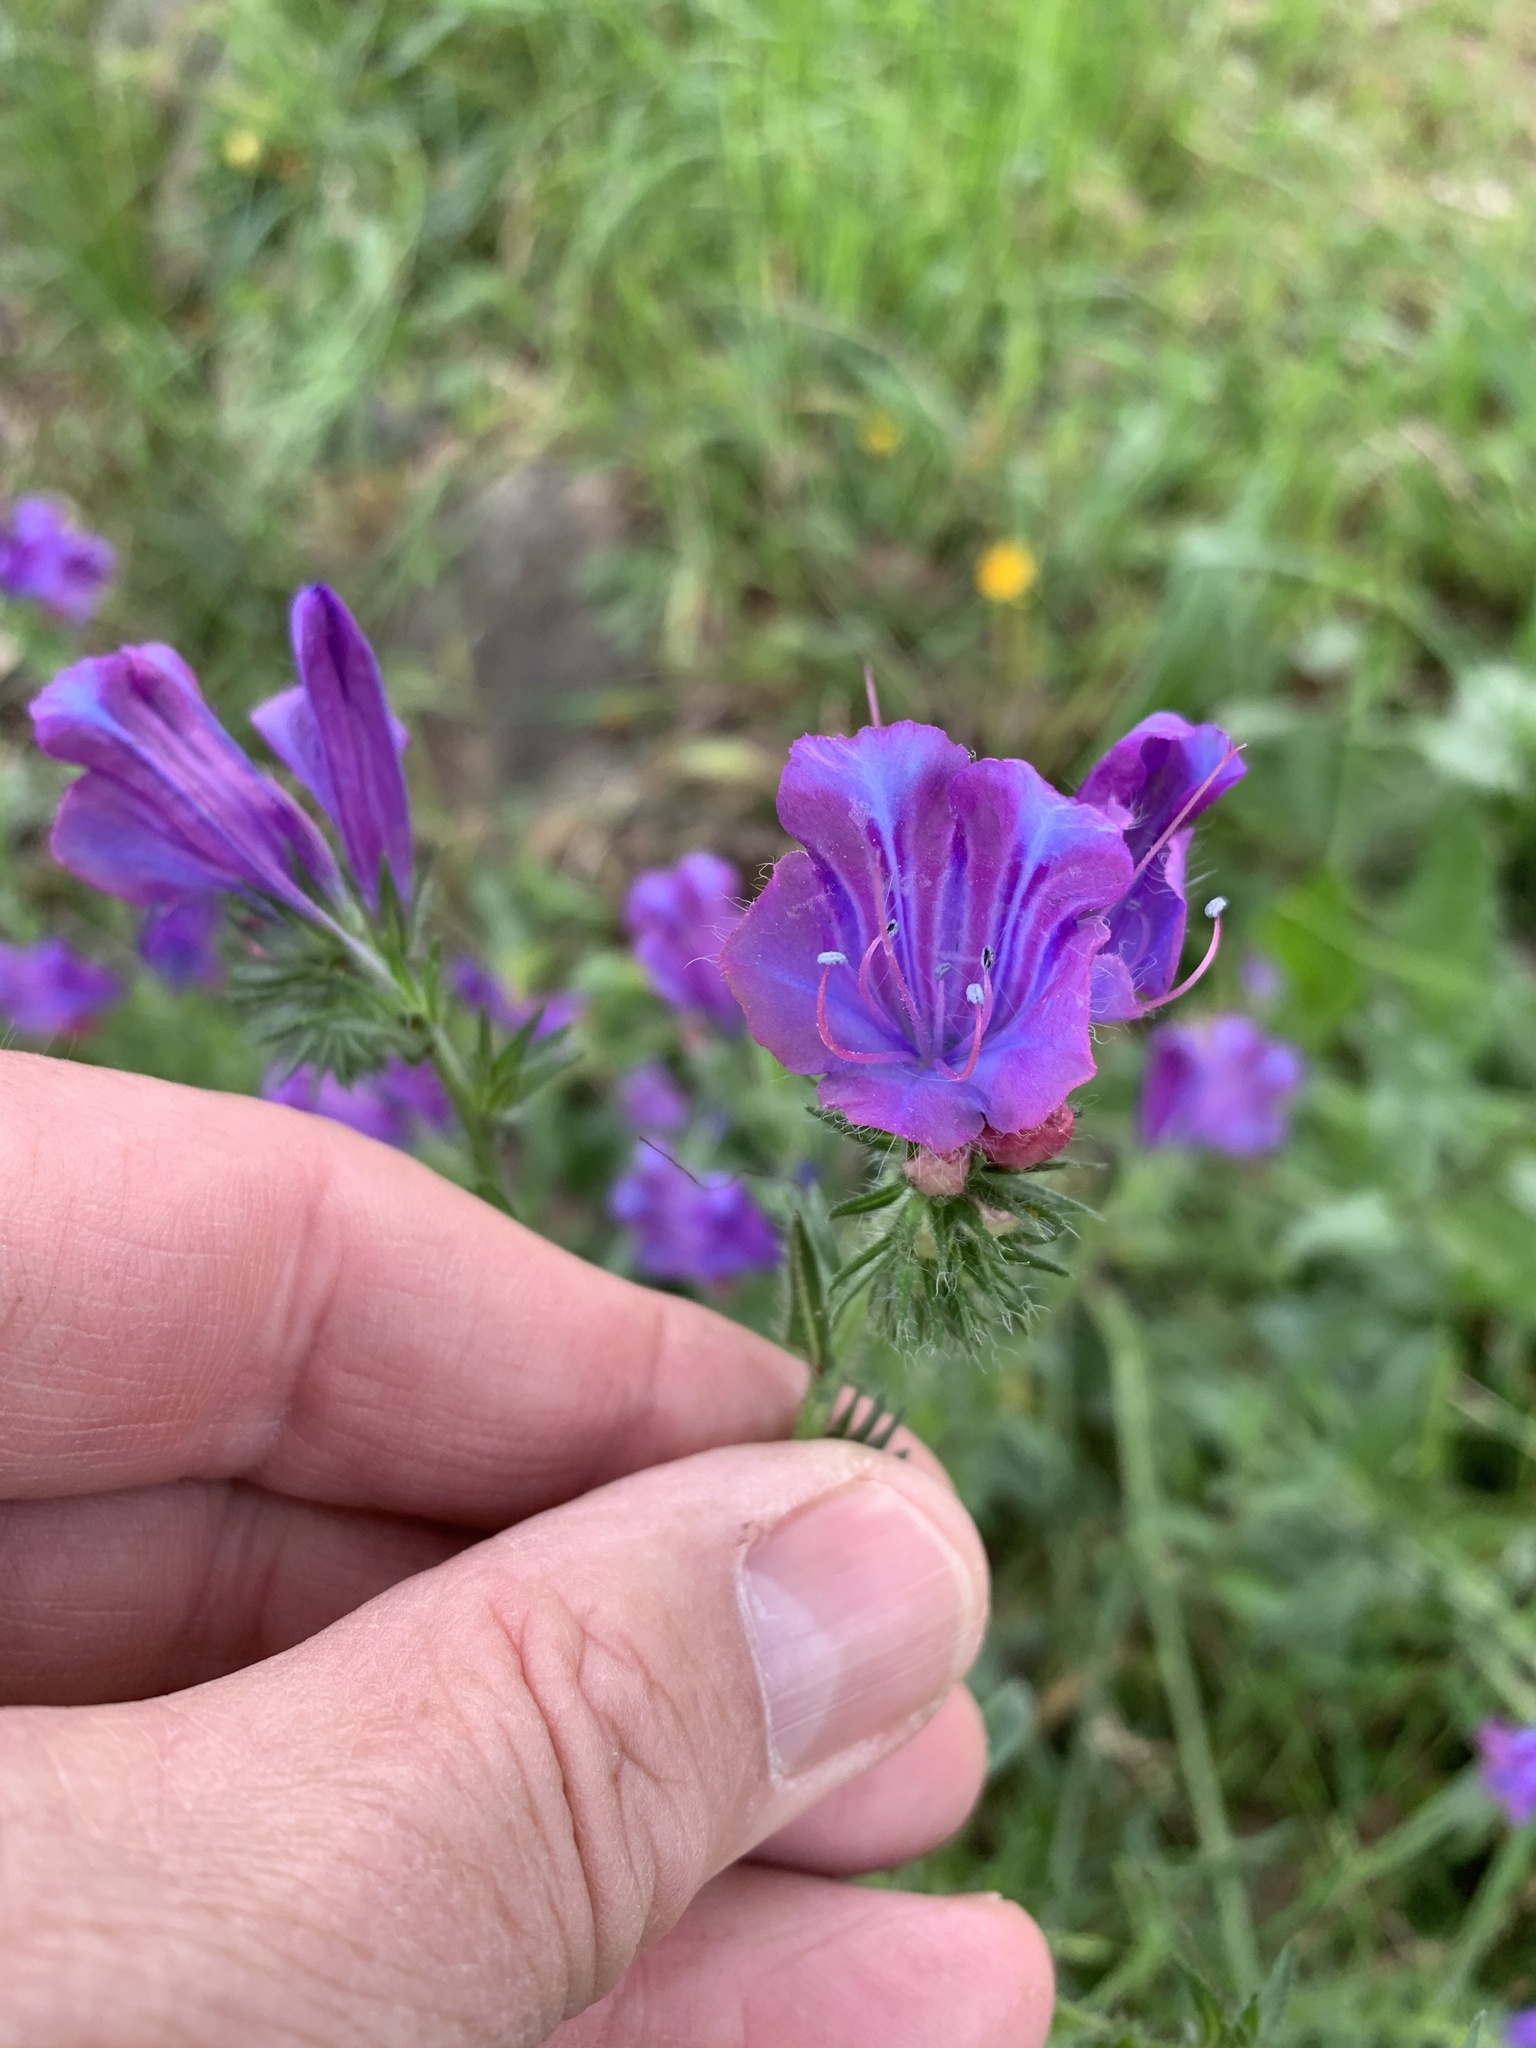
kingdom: Plantae
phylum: Tracheophyta
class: Magnoliopsida
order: Boraginales
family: Boraginaceae
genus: Echium
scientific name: Echium plantagineum
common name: Purple viper's-bugloss
